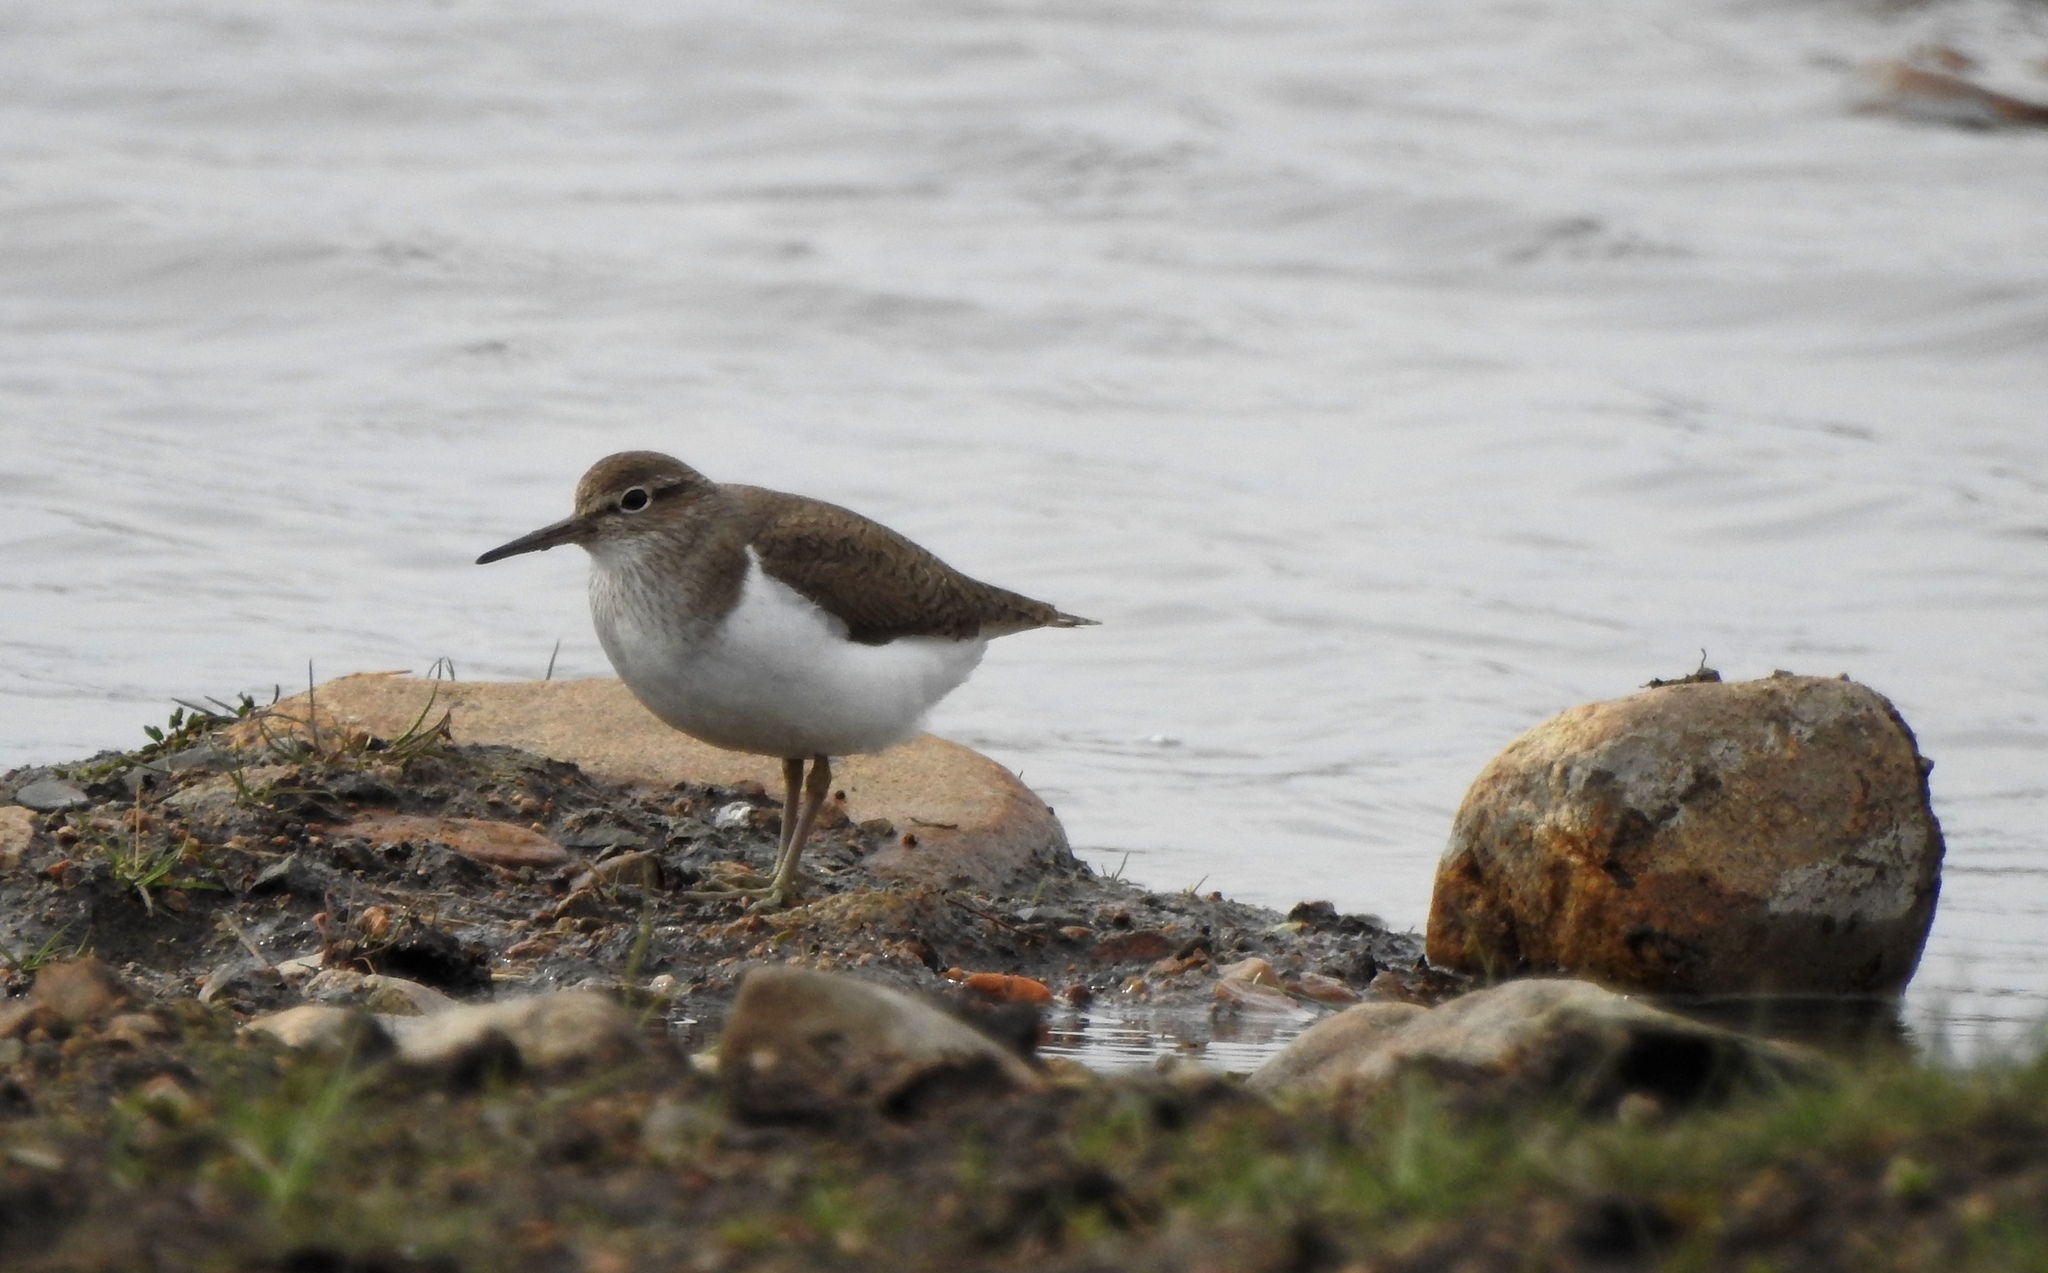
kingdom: Animalia
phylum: Chordata
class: Aves
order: Charadriiformes
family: Scolopacidae
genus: Actitis
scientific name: Actitis hypoleucos
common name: Common sandpiper
